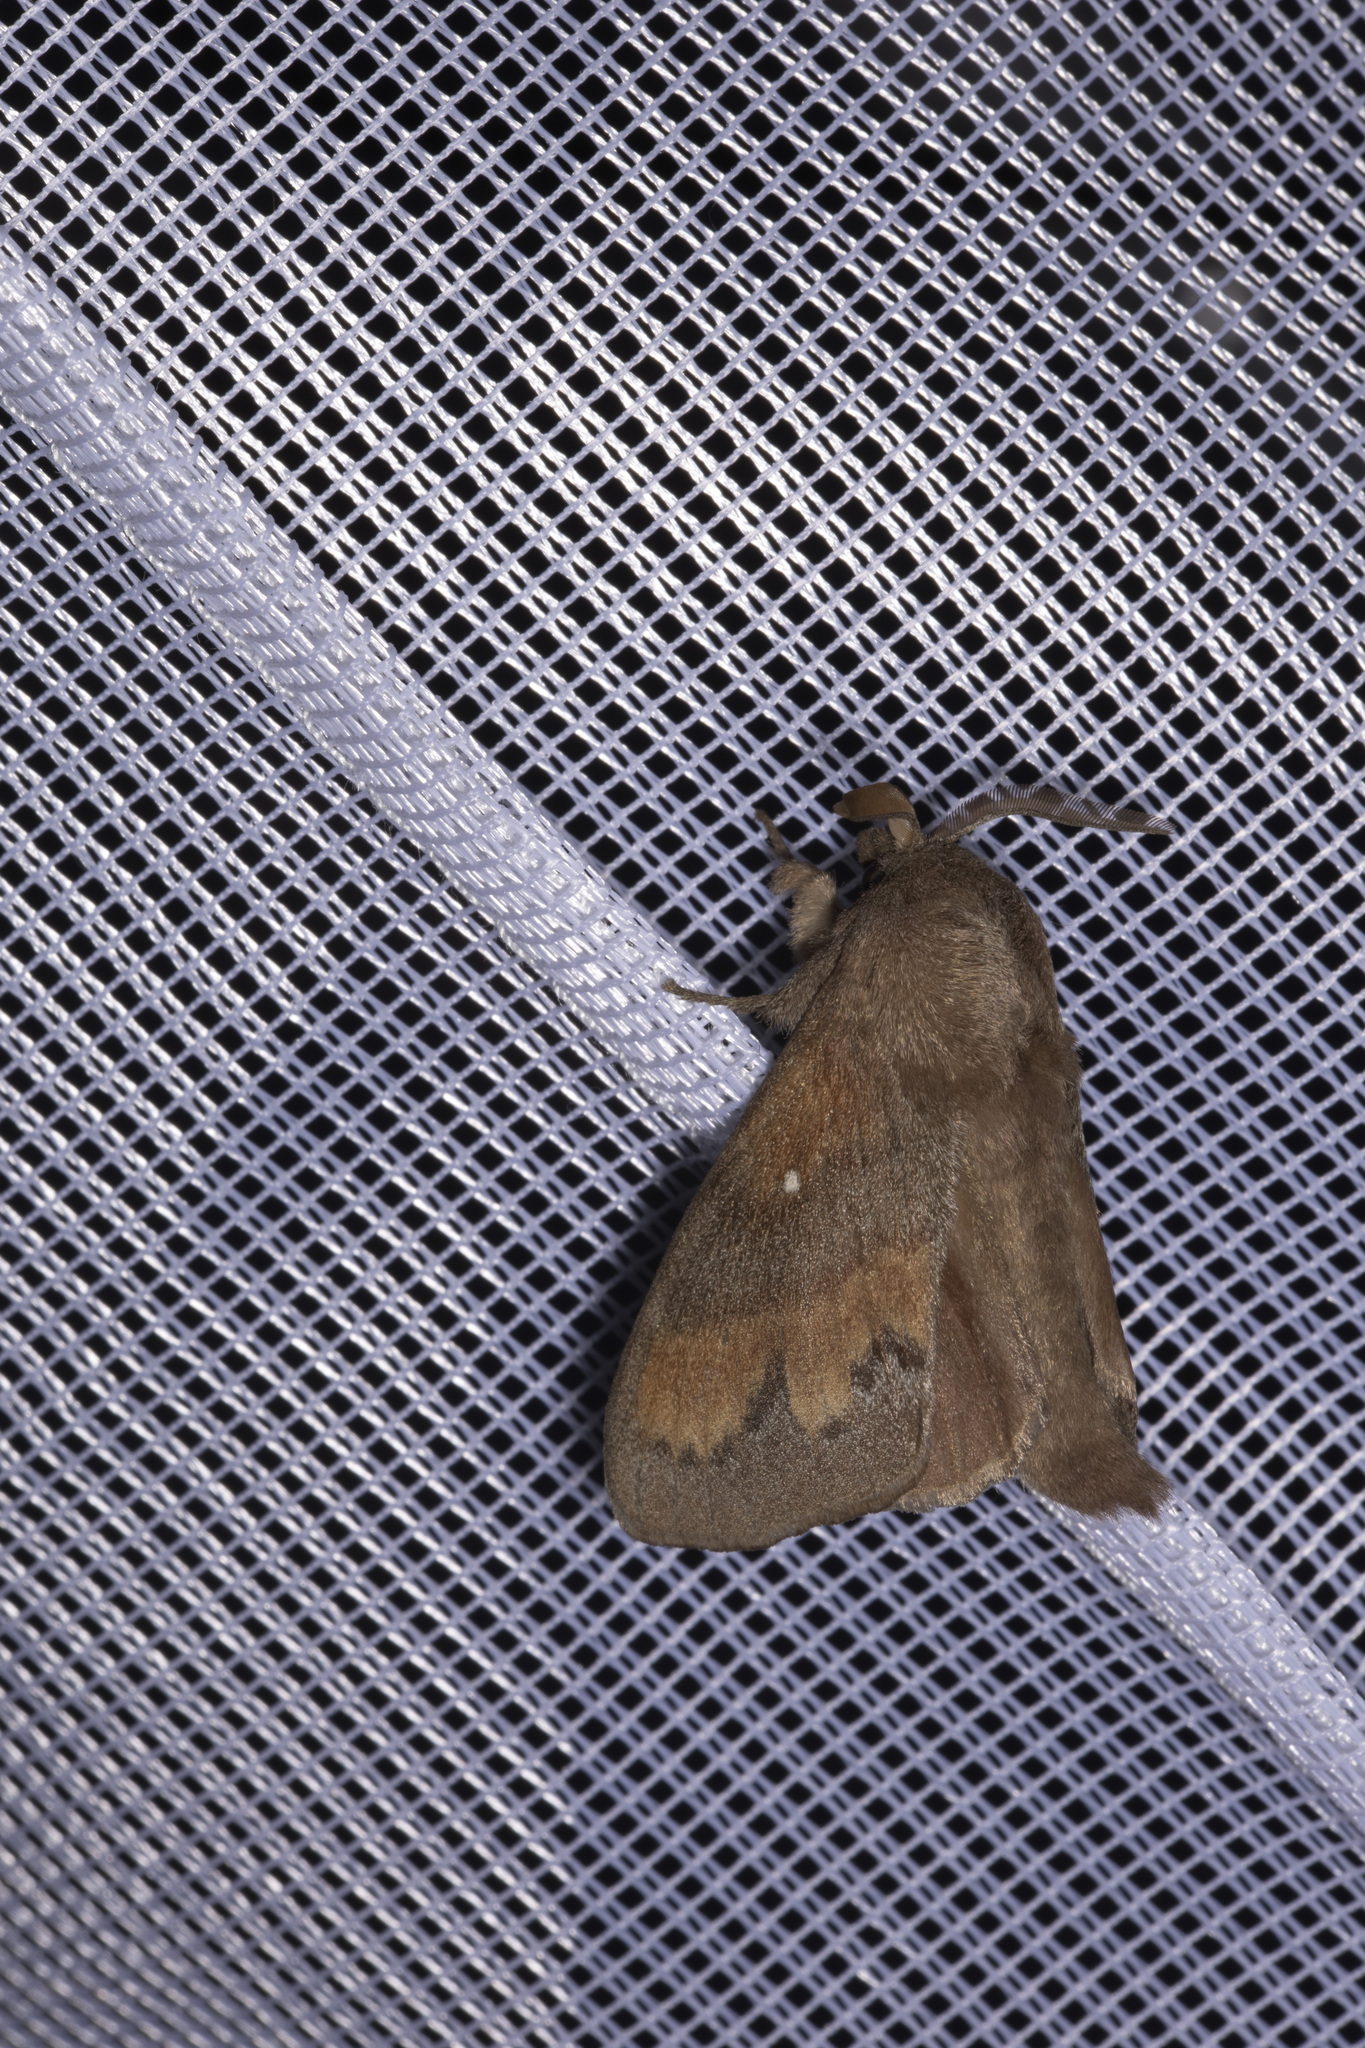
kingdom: Animalia
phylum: Arthropoda
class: Insecta
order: Lepidoptera
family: Lasiocampidae
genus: Dendrolimus
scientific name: Dendrolimus pini
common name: Pine-tree lappet
